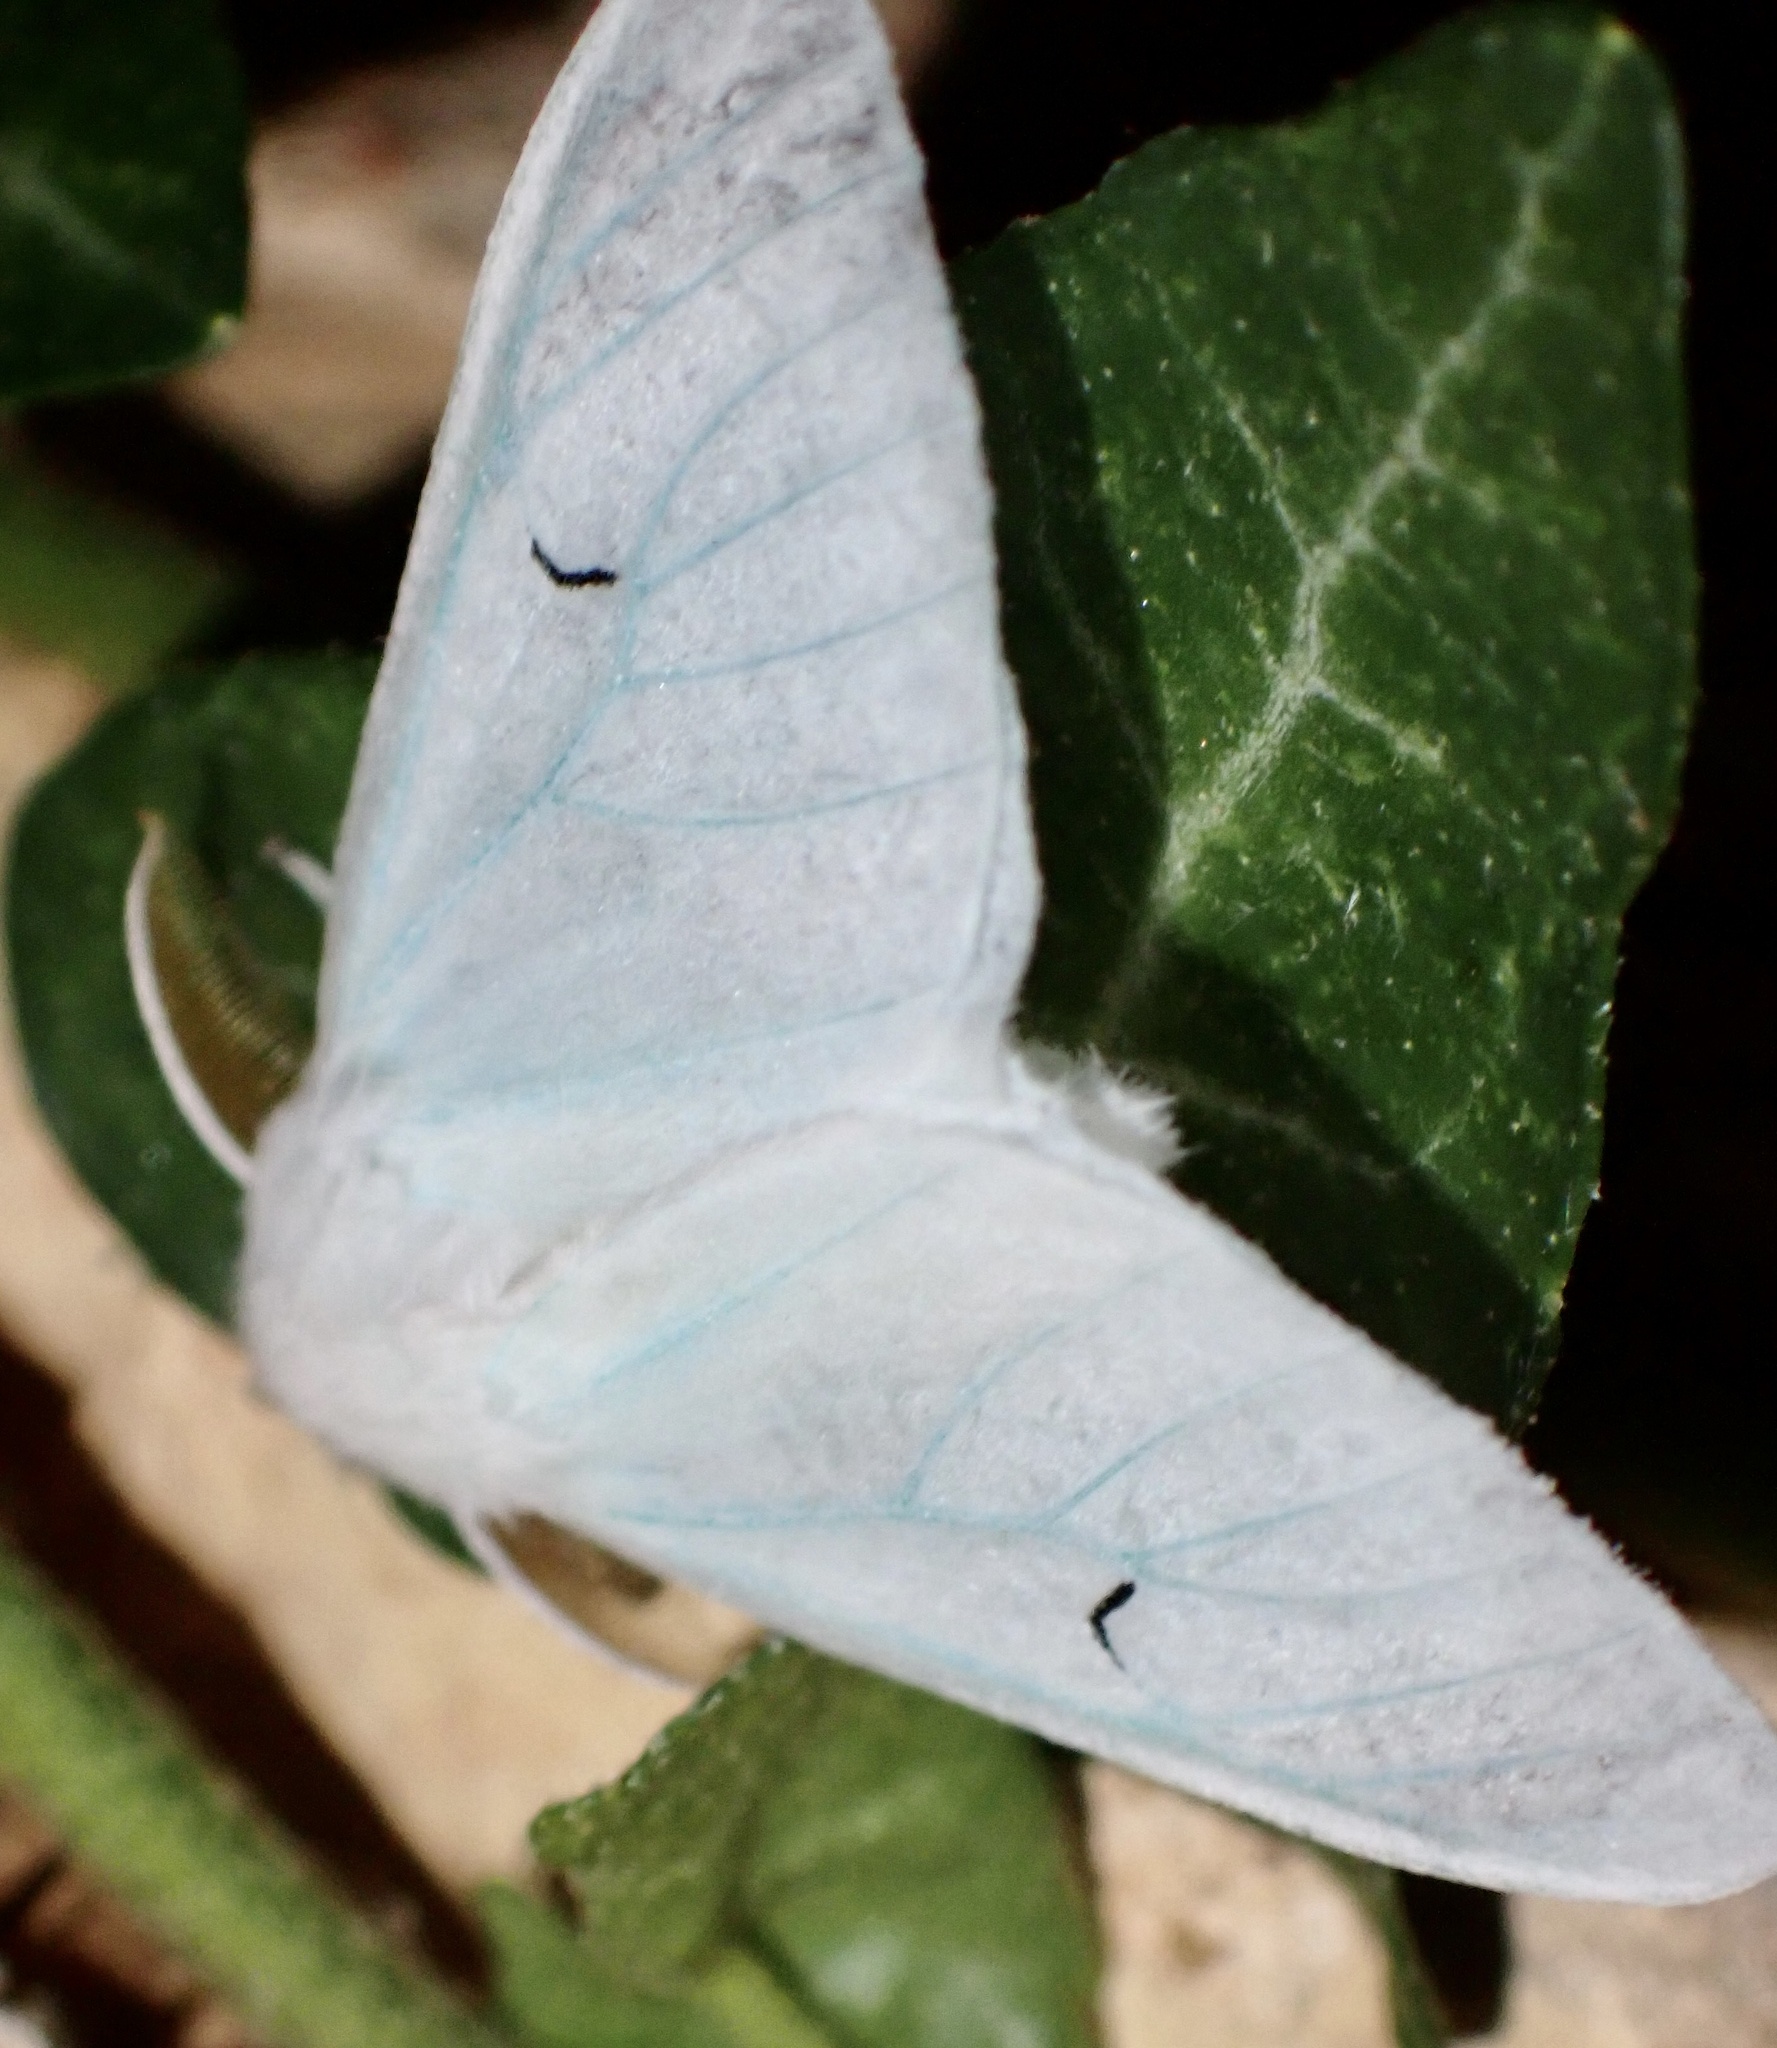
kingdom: Animalia
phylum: Arthropoda
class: Insecta
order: Lepidoptera
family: Erebidae
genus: Arctornis
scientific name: Arctornis l-nigrum
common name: Black v moth
